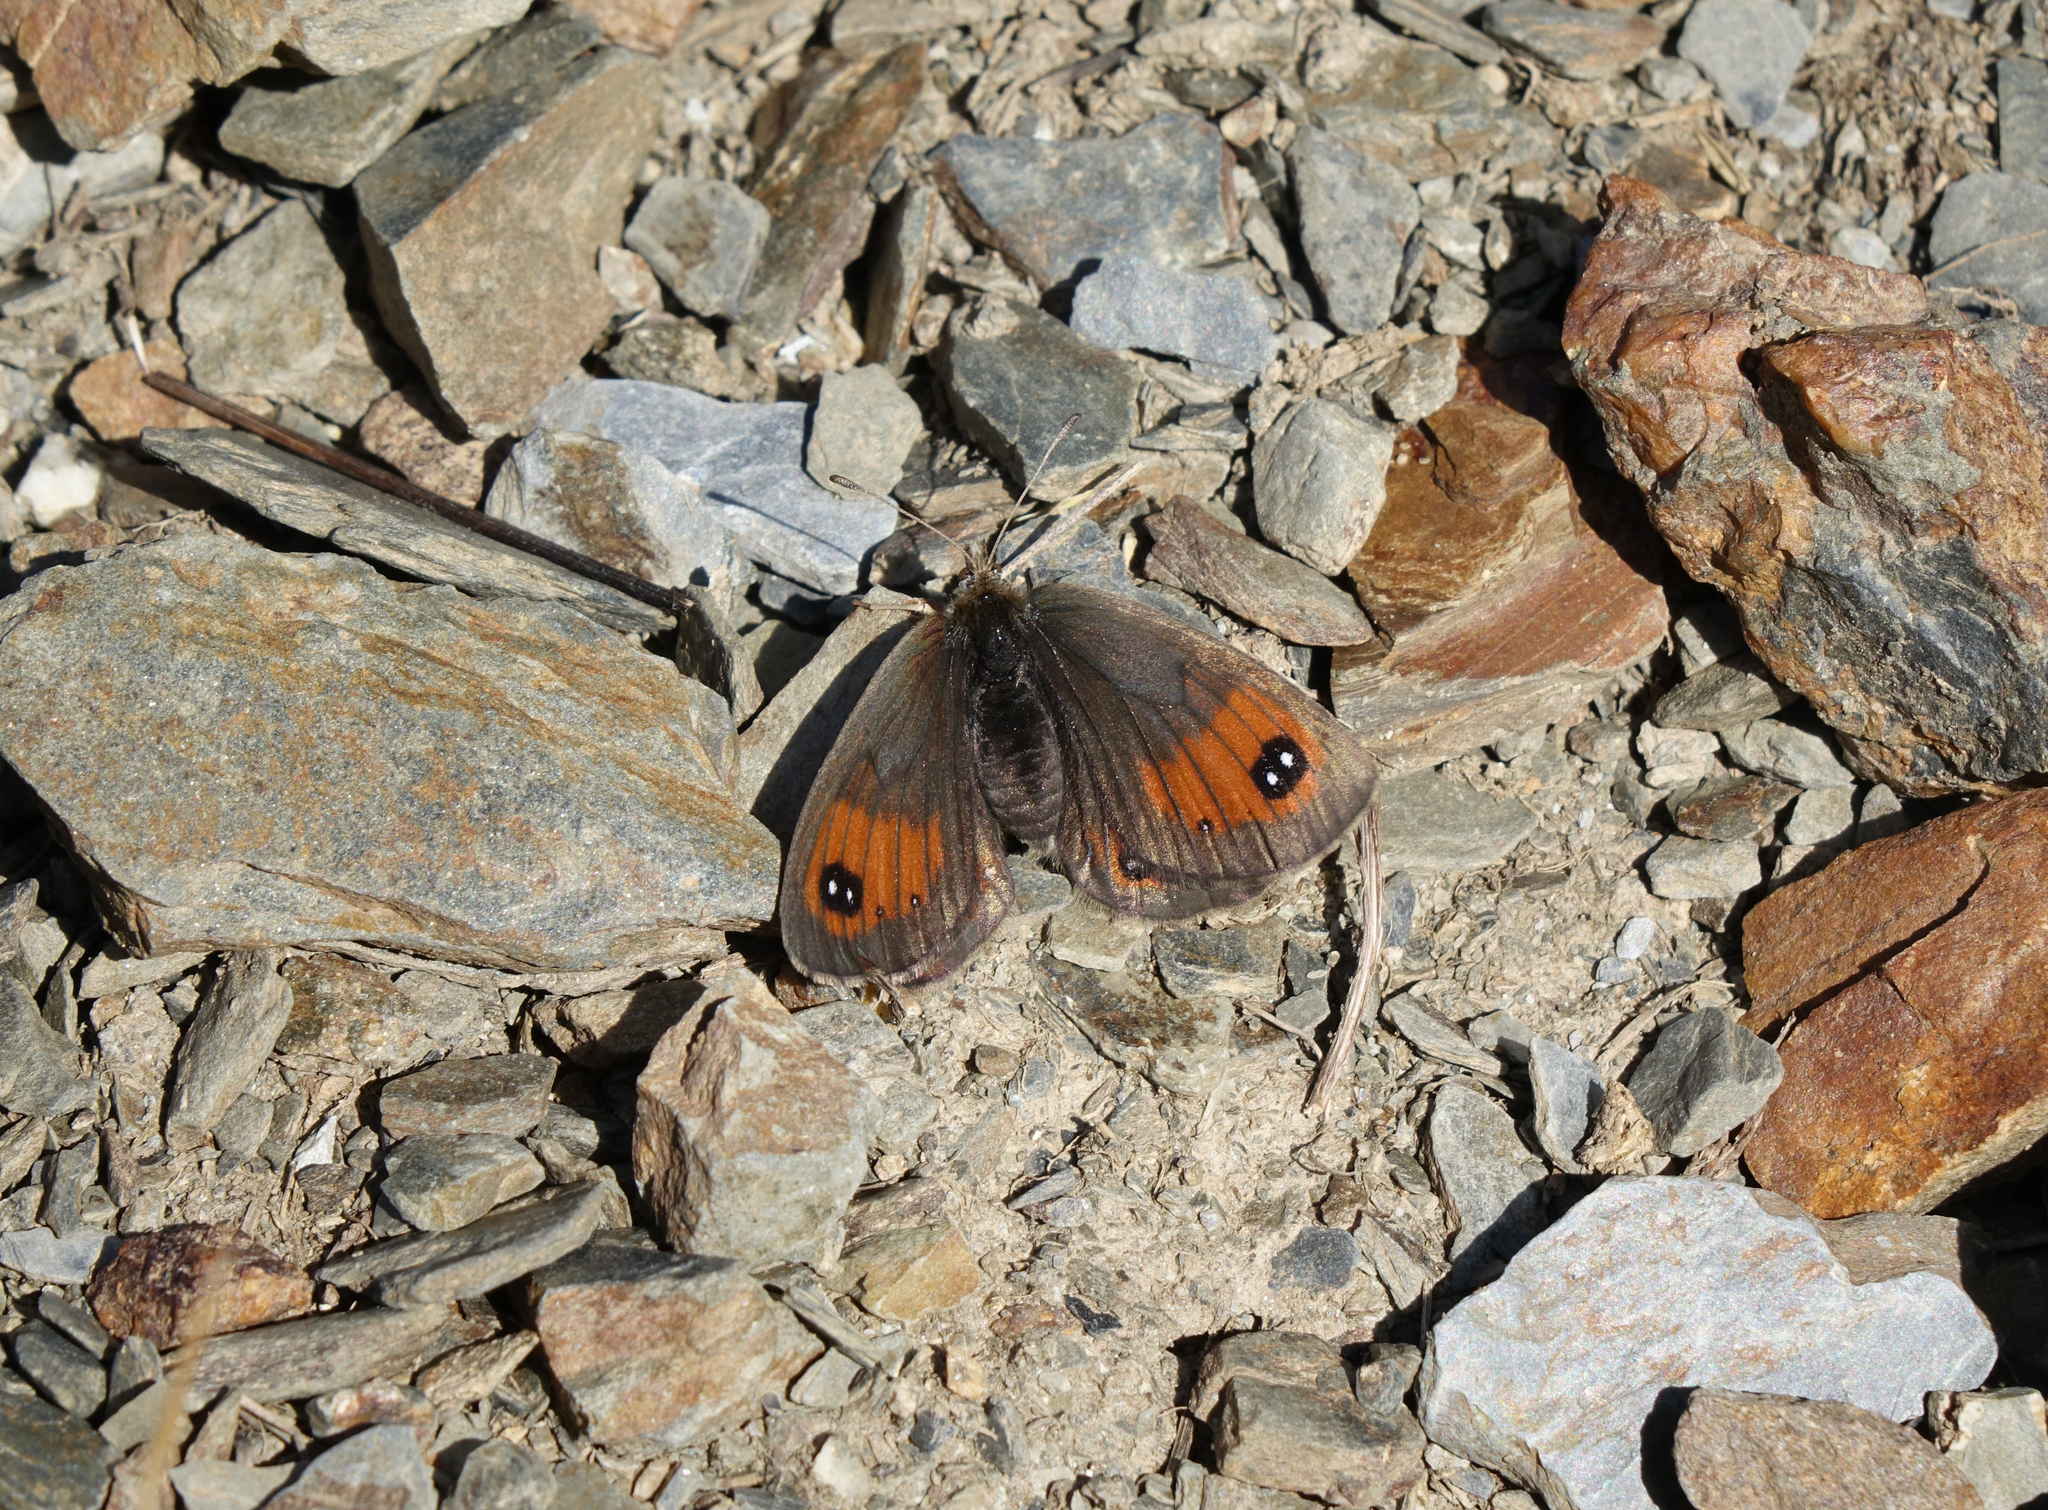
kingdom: Animalia
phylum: Arthropoda
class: Insecta
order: Lepidoptera
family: Nymphalidae
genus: Erebia
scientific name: Erebia iranica
